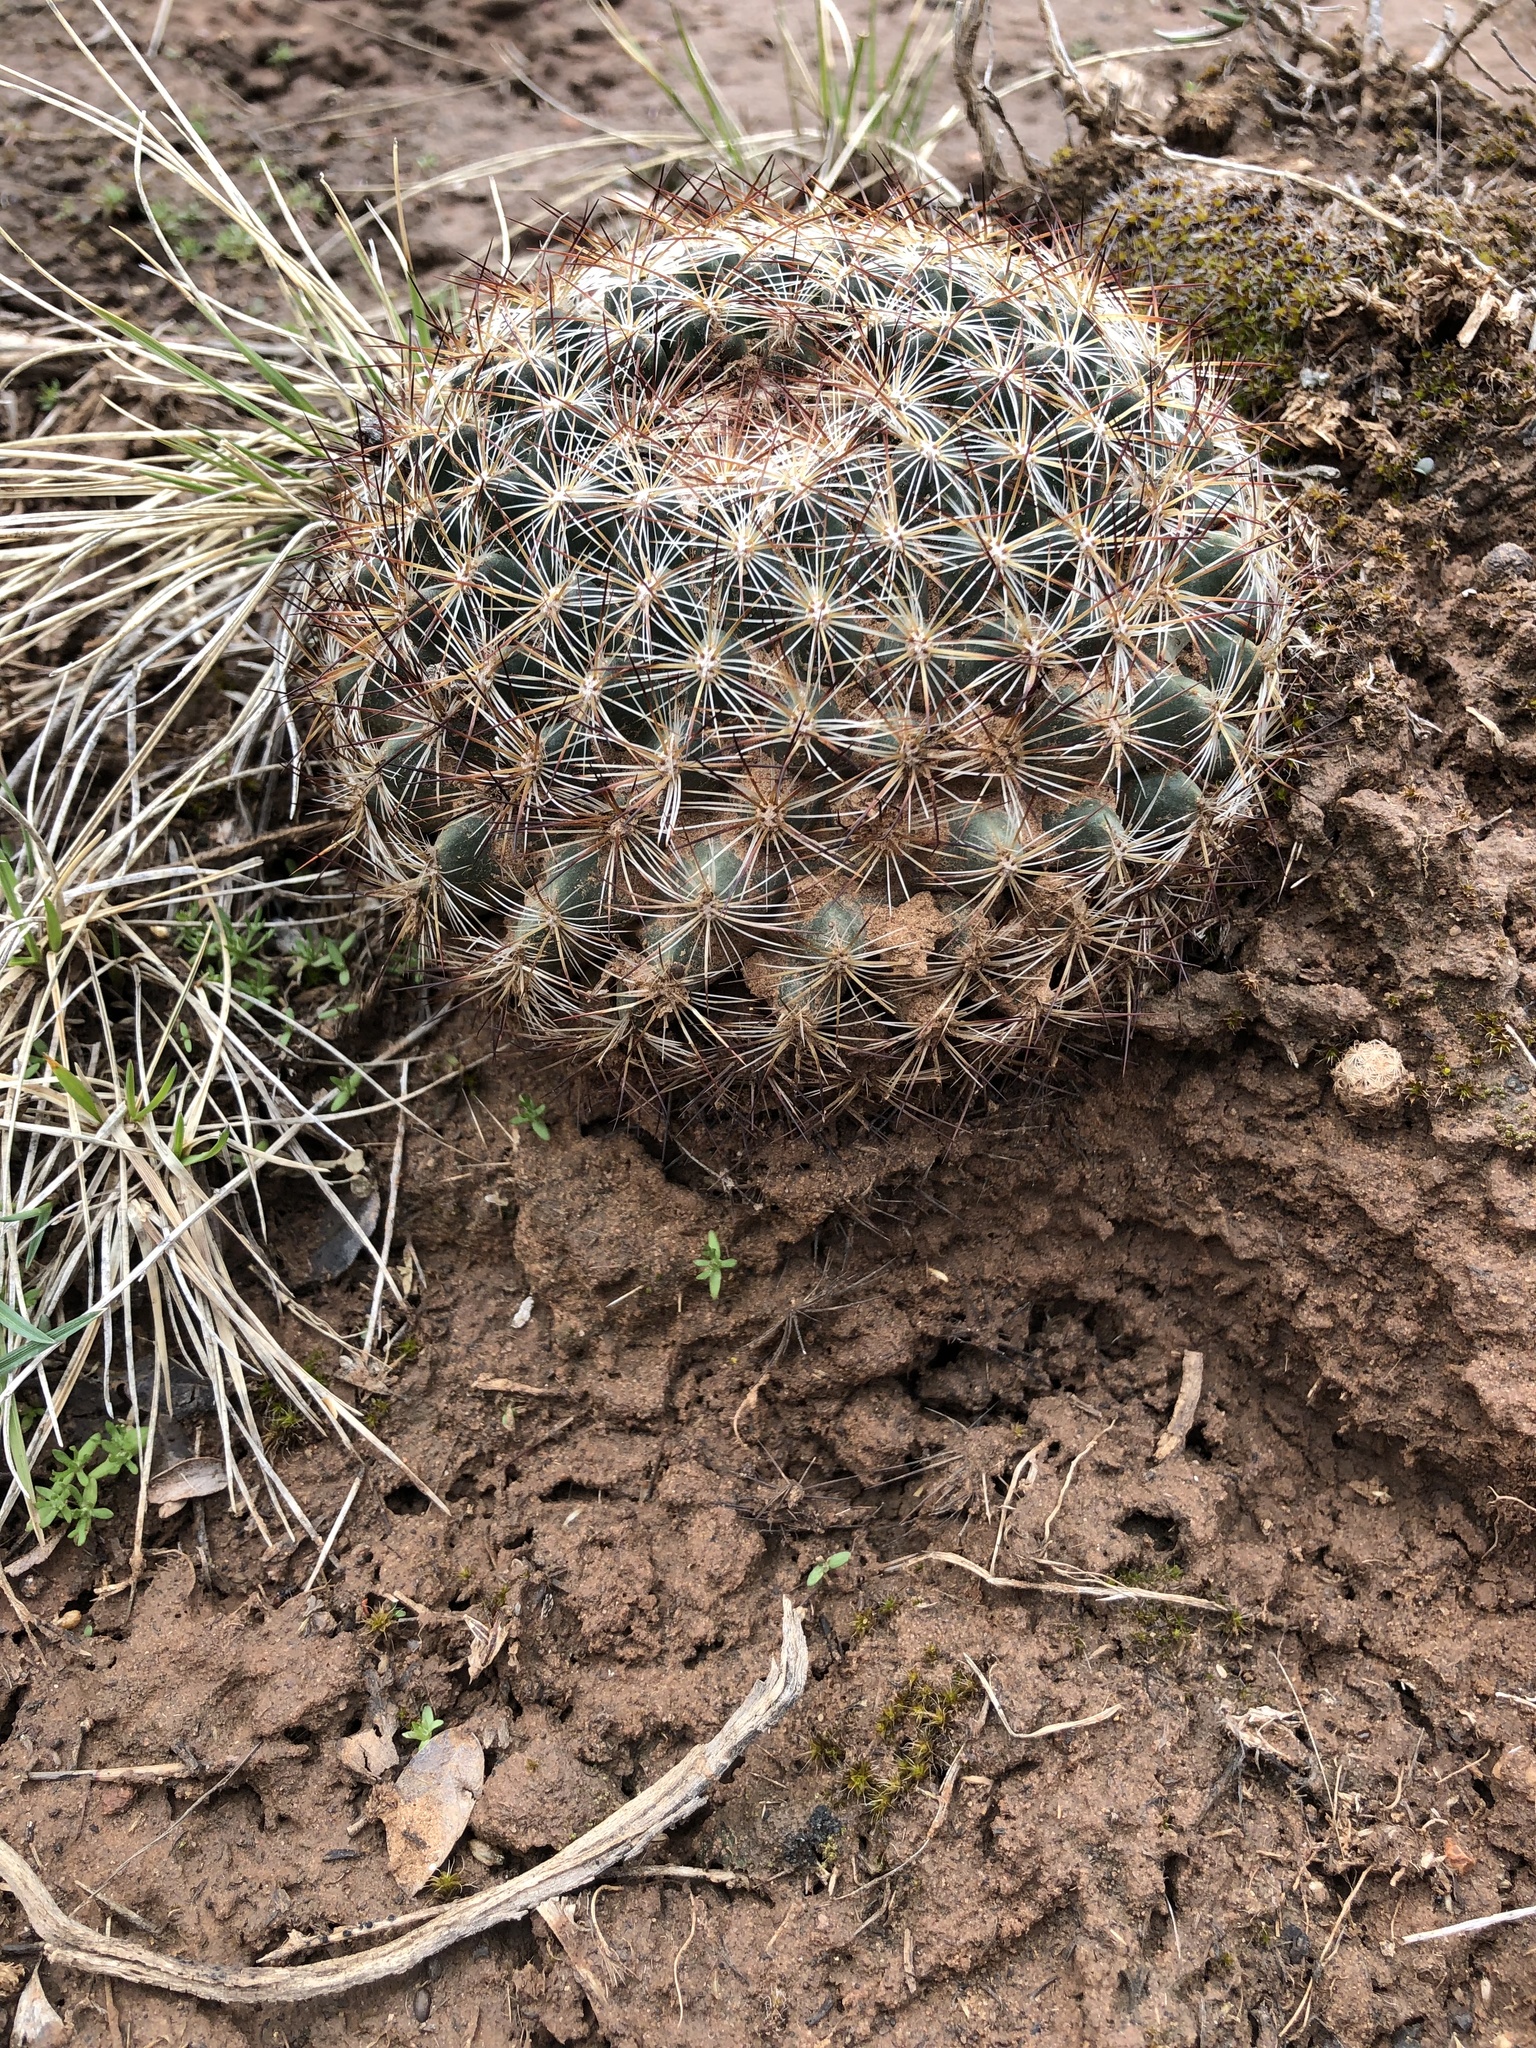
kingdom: Plantae
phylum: Tracheophyta
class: Magnoliopsida
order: Caryophyllales
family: Cactaceae
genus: Pediocactus
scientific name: Pediocactus simpsonii
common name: Simpson's hedgehog cactus
